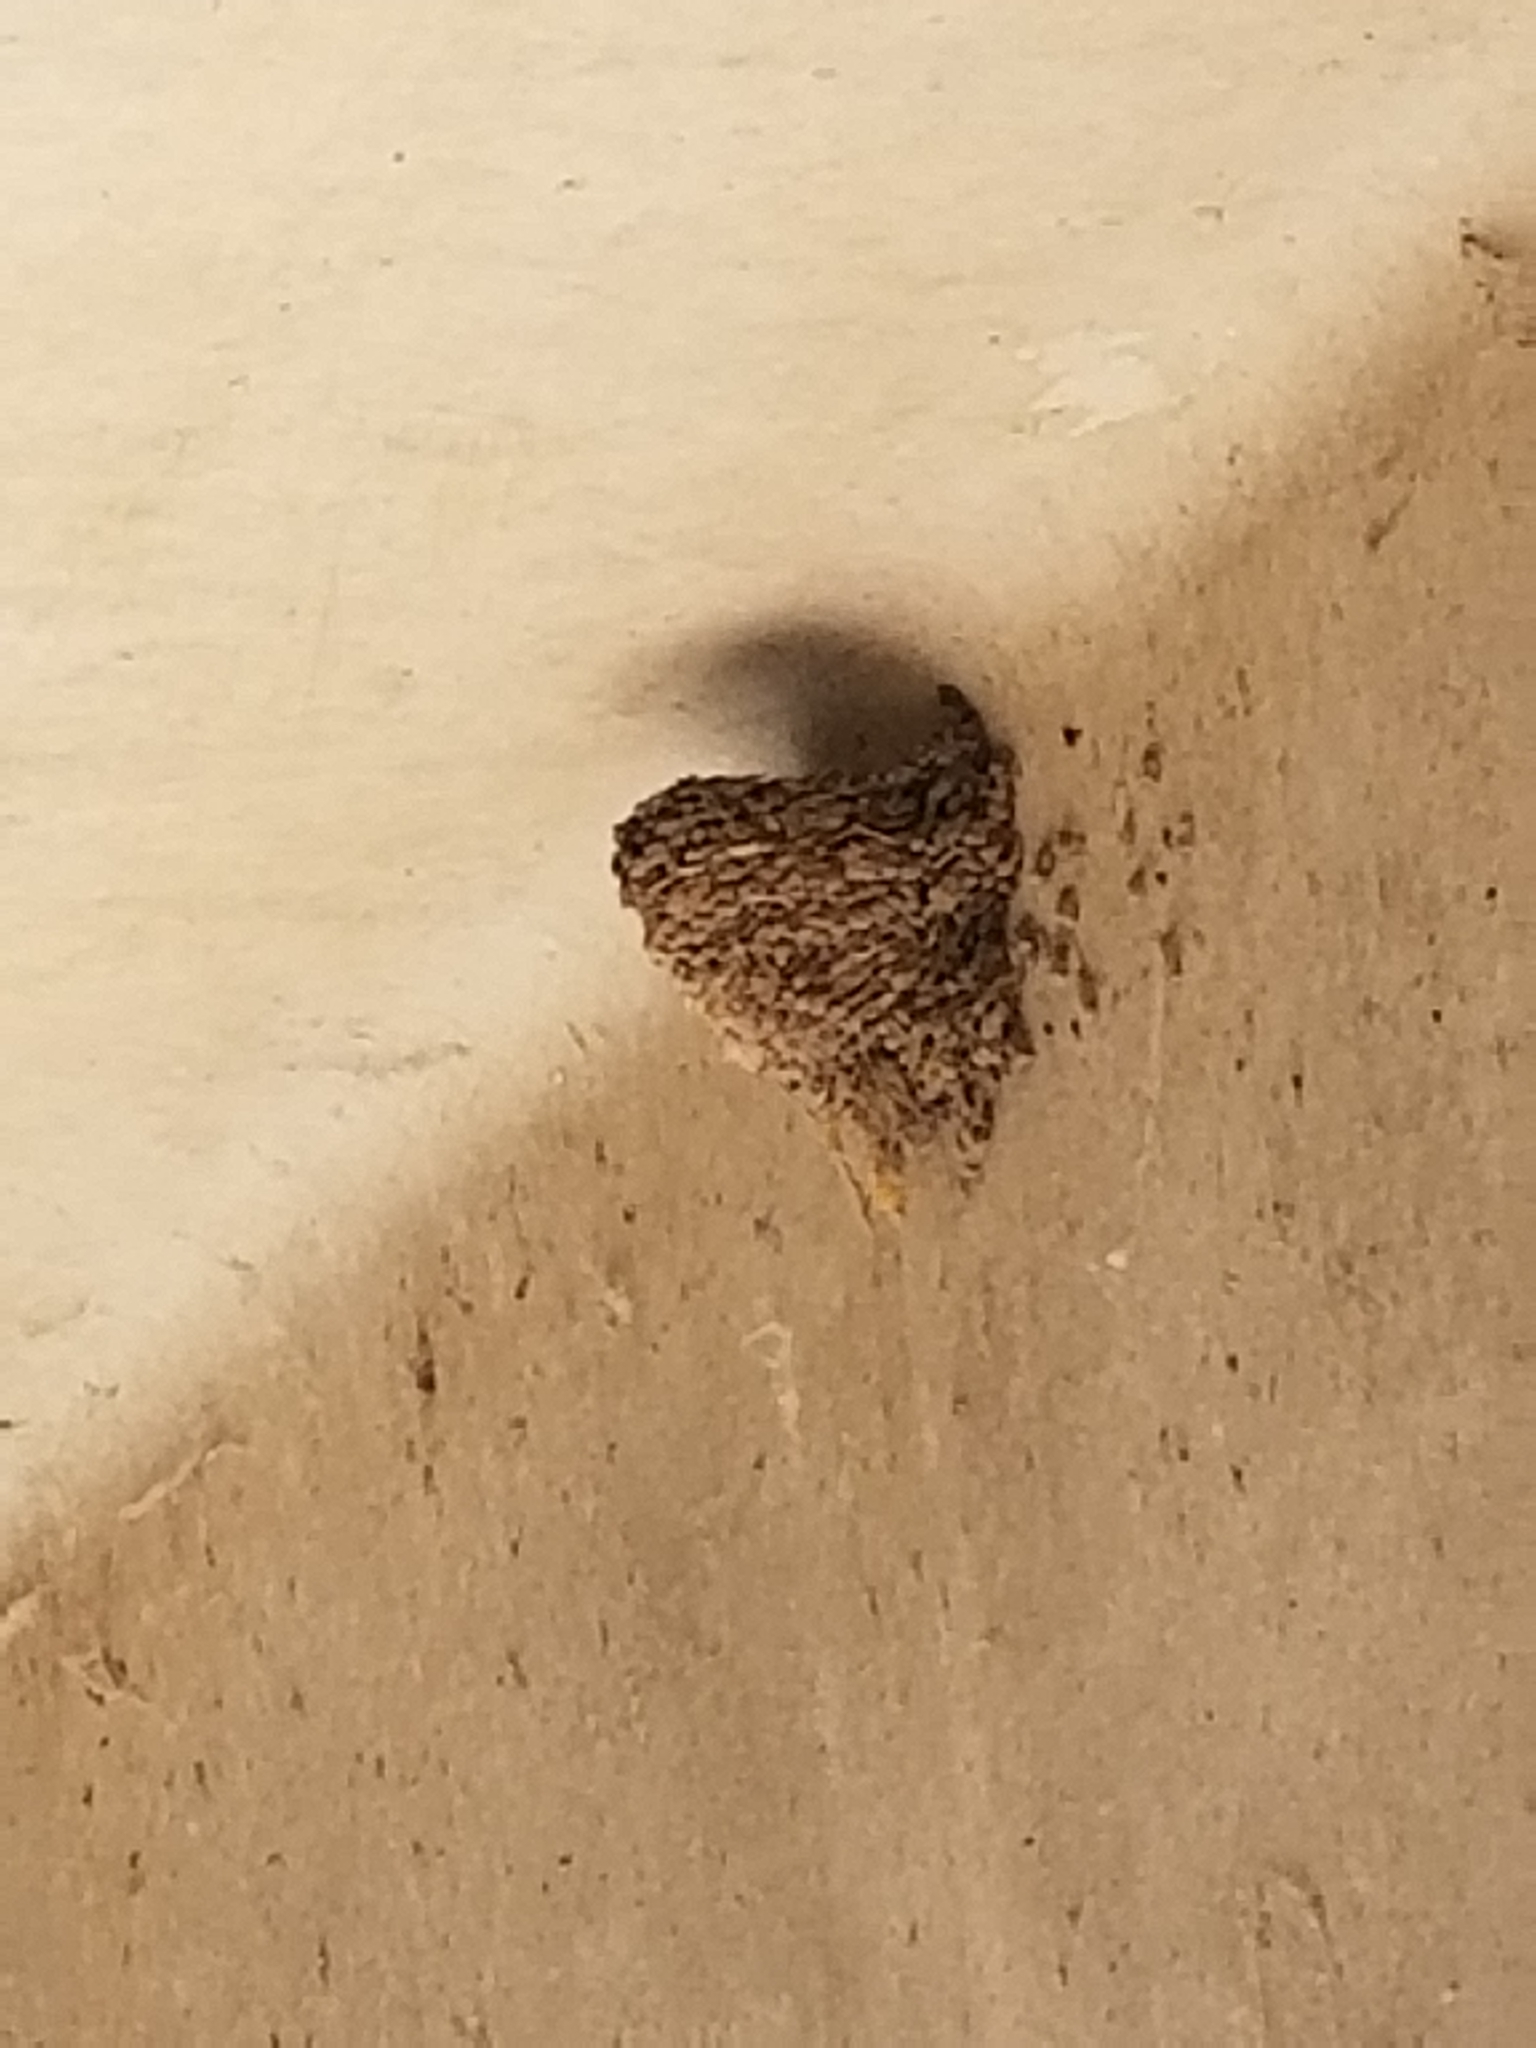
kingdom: Animalia
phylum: Chordata
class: Aves
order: Passeriformes
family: Hirundinidae
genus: Hirundo
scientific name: Hirundo rustica
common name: Barn swallow
